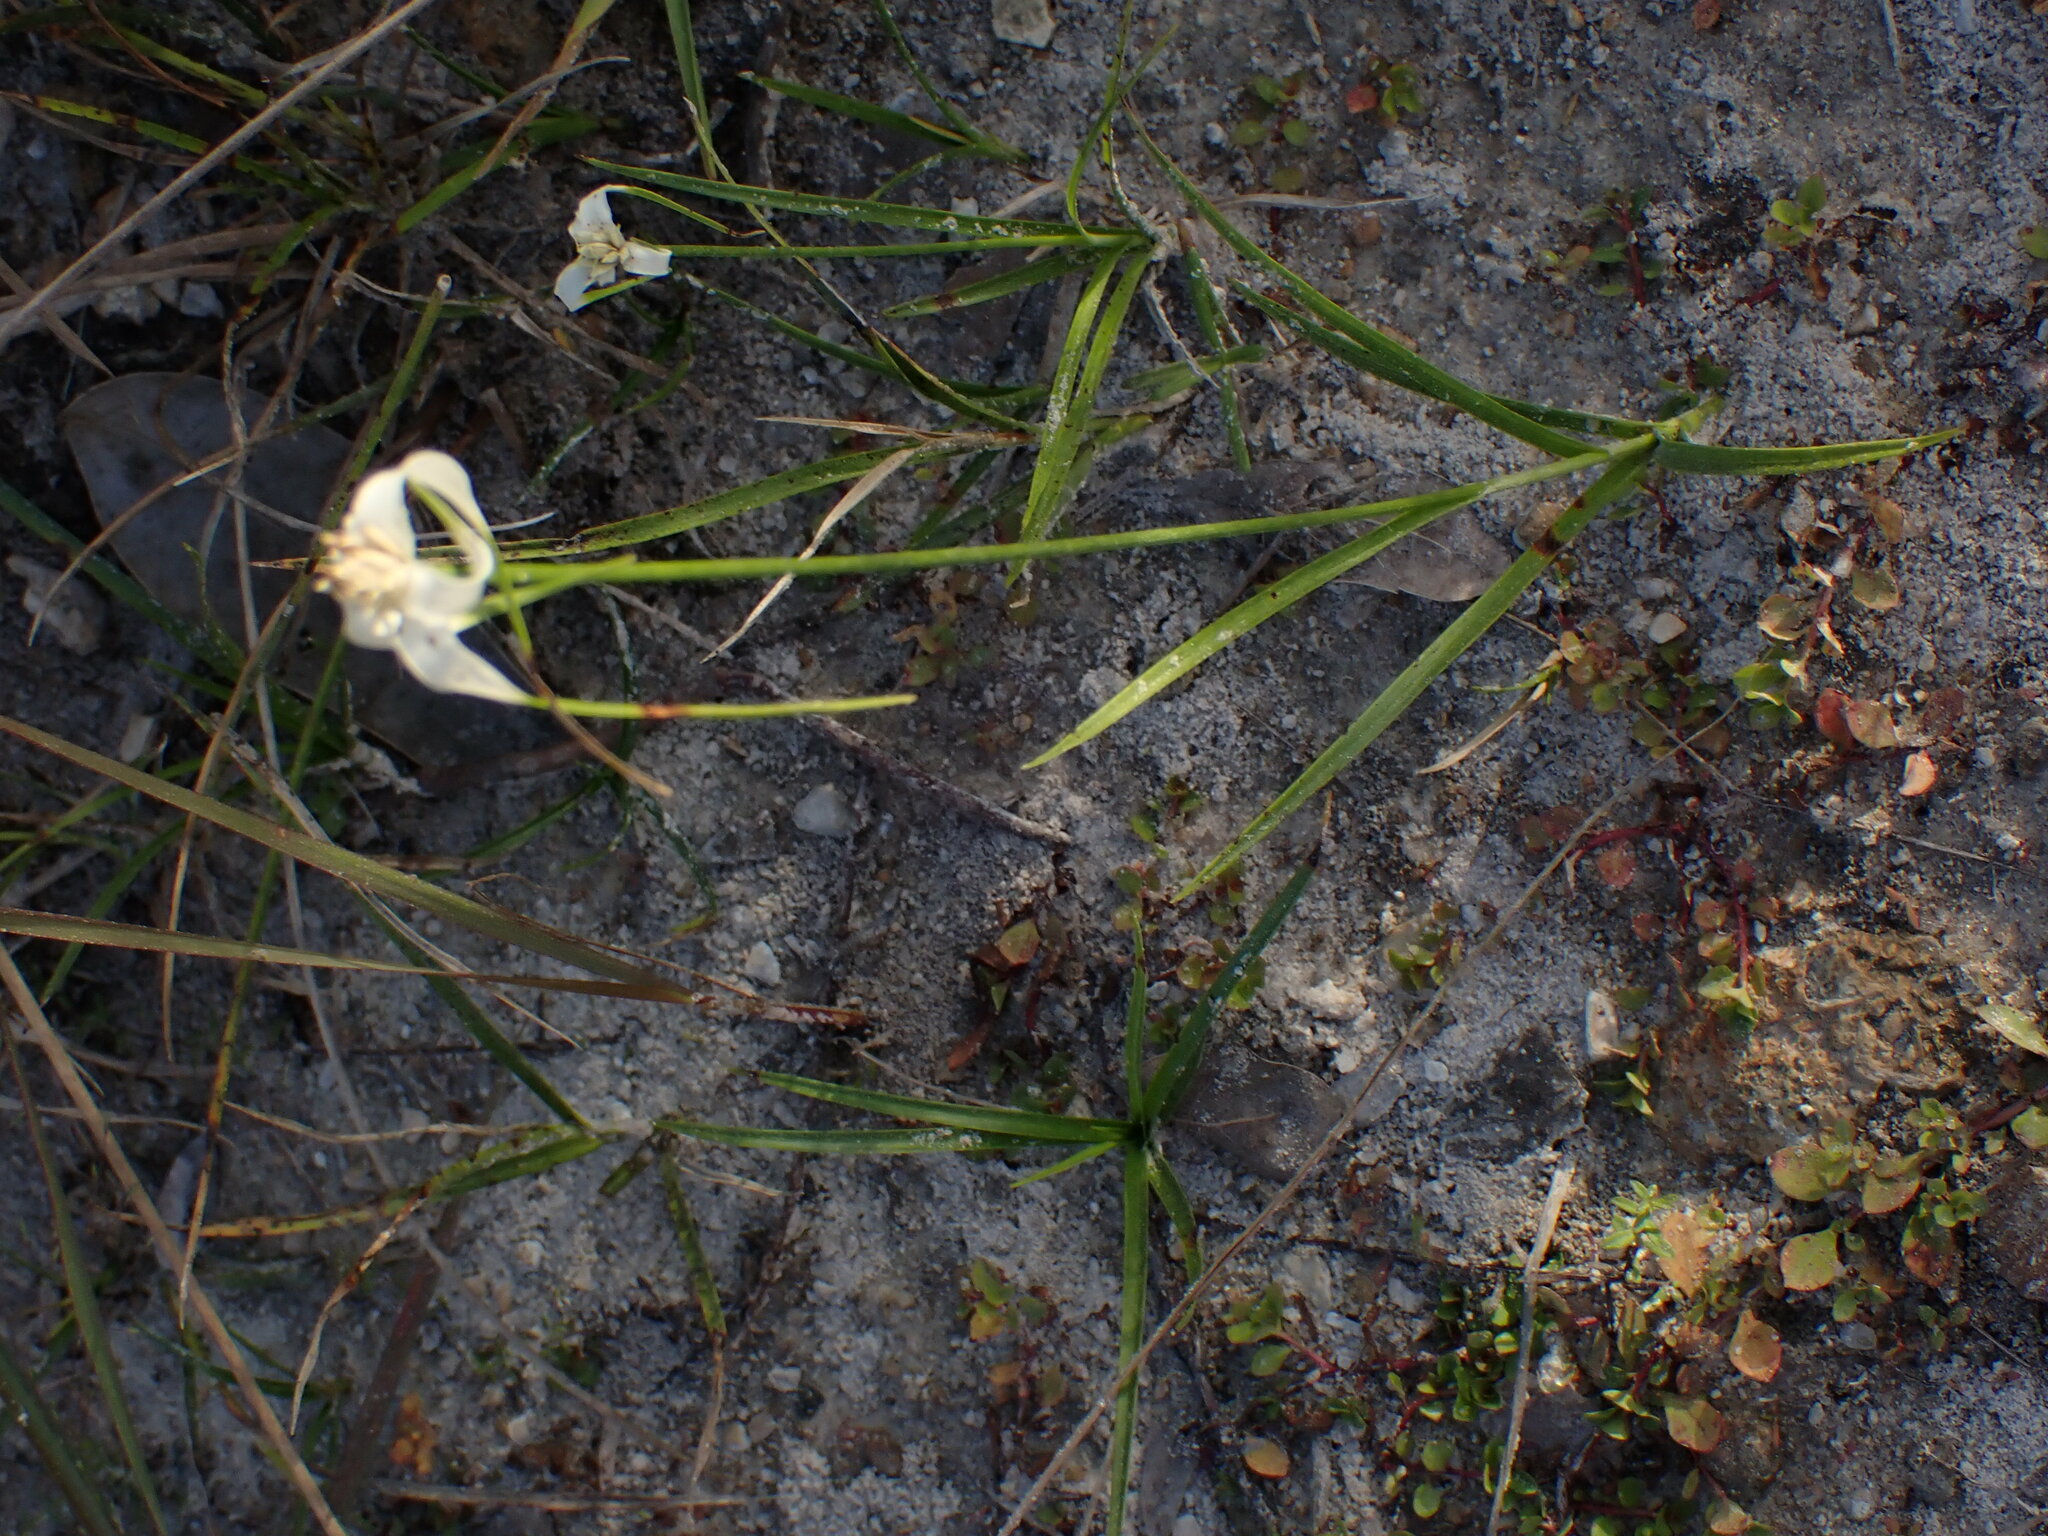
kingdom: Plantae
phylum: Tracheophyta
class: Liliopsida
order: Poales
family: Cyperaceae
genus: Rhynchospora
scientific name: Rhynchospora colorata
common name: Star sedge
